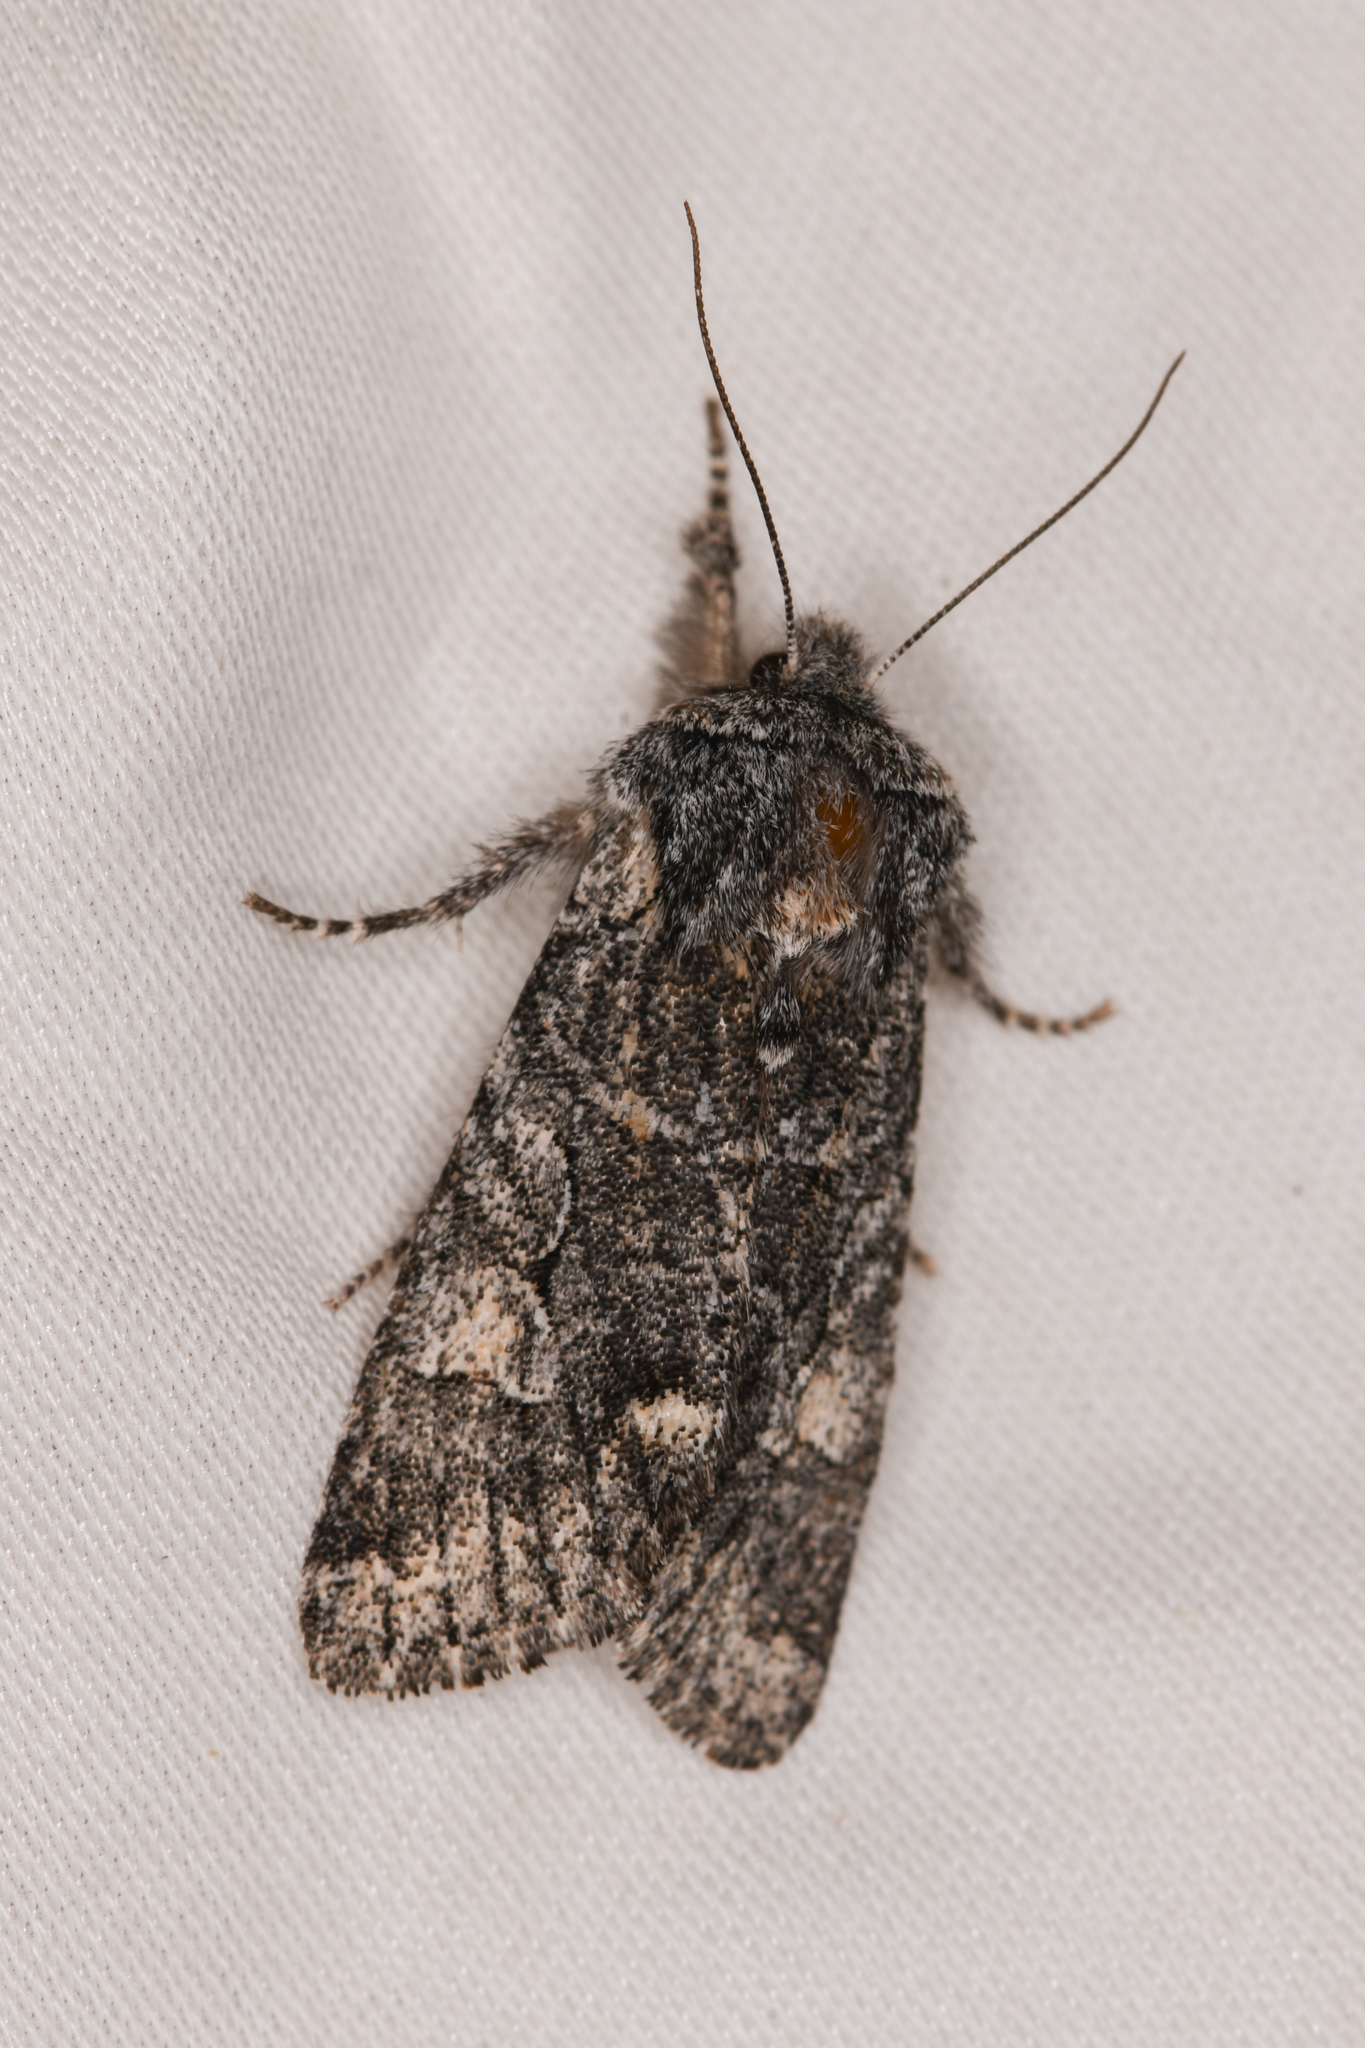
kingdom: Animalia
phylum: Arthropoda
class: Insecta
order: Lepidoptera
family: Noctuidae
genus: Egira
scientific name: Egira variabilis
